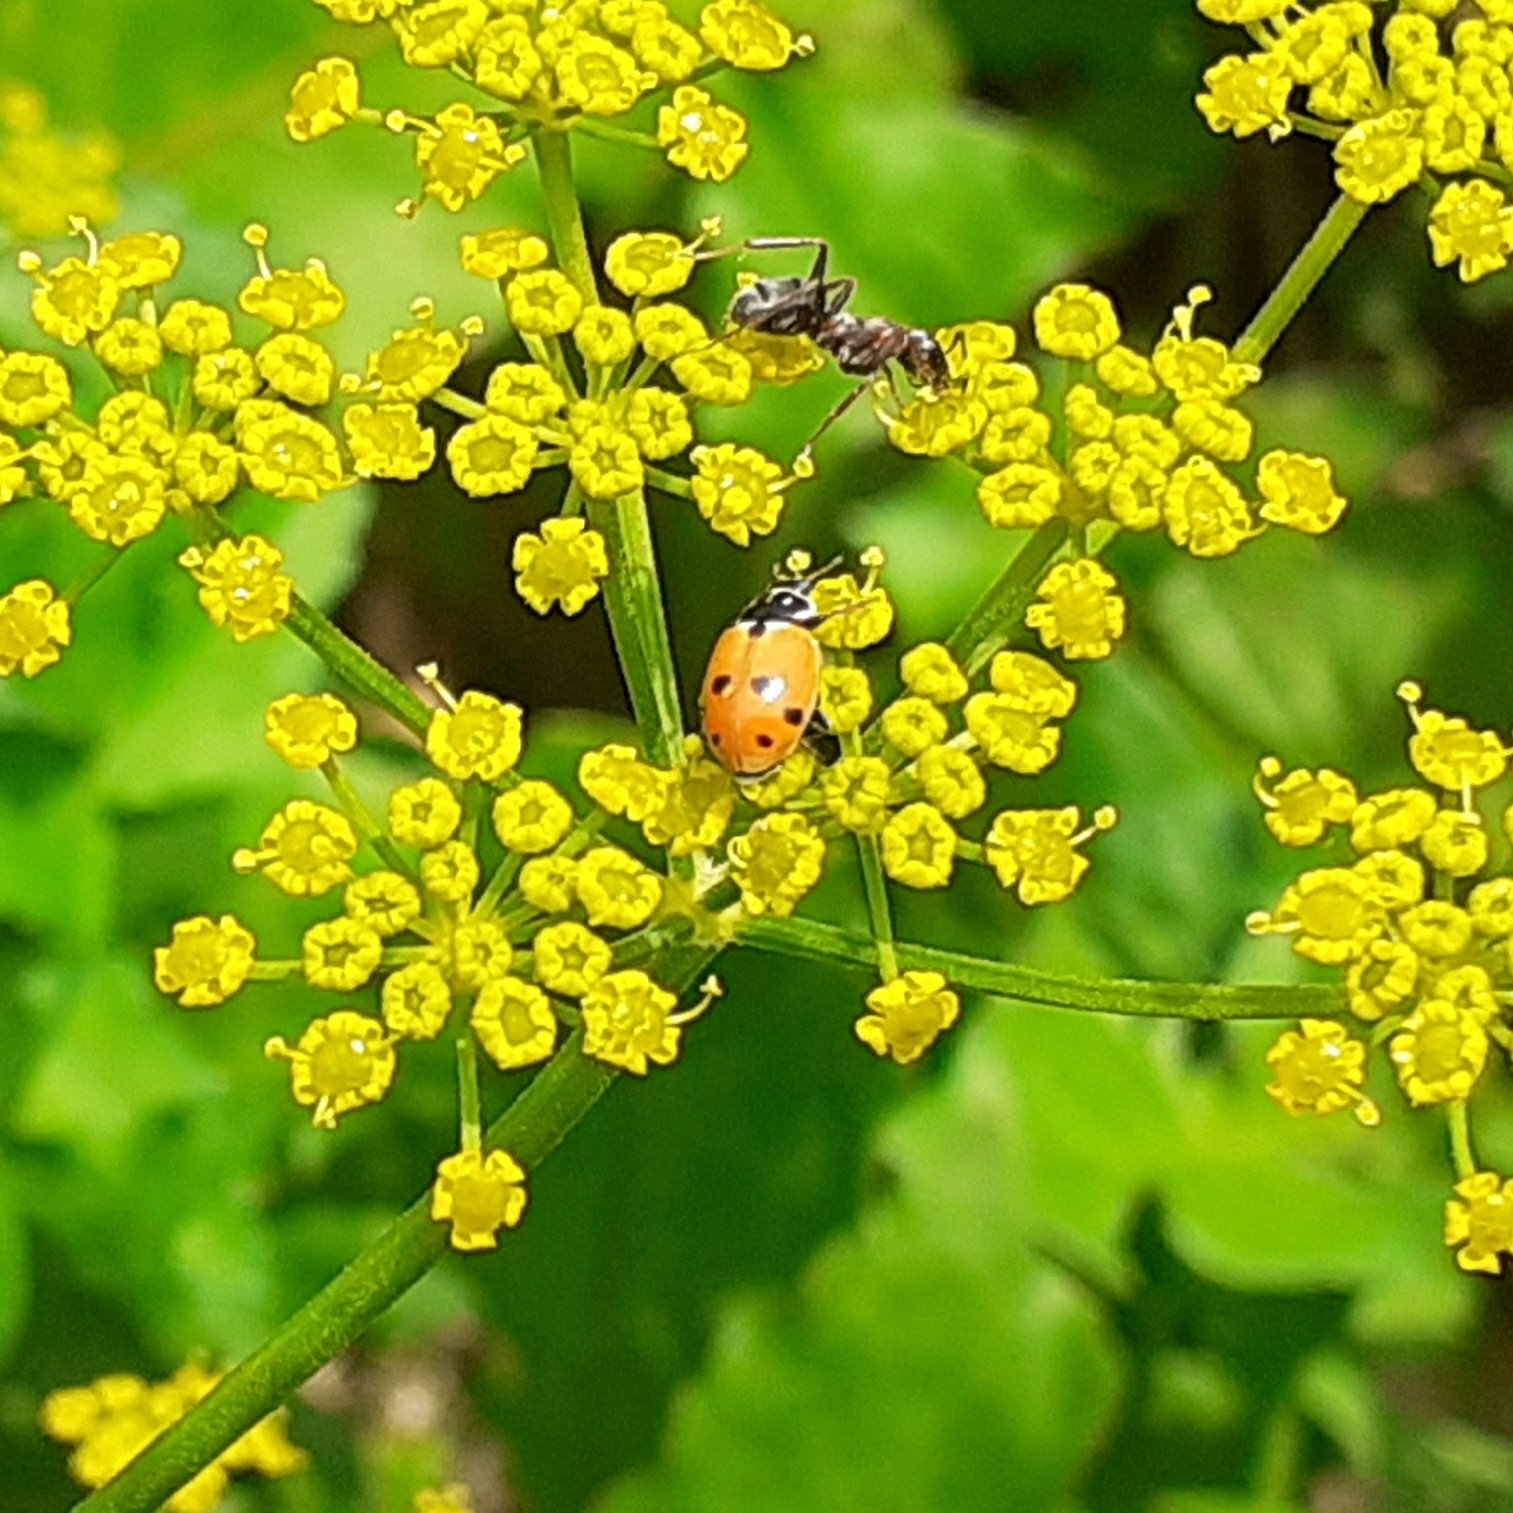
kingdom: Animalia
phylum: Arthropoda
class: Insecta
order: Coleoptera
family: Coccinellidae
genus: Hippodamia
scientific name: Hippodamia variegata
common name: Ladybird beetle
